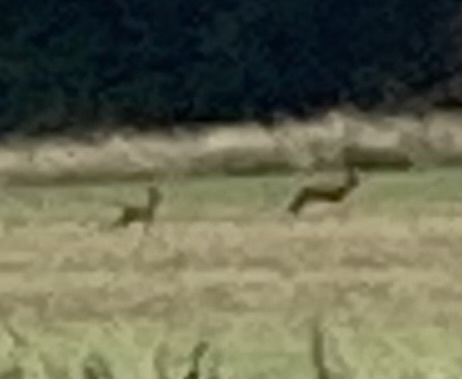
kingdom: Animalia
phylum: Chordata
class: Mammalia
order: Artiodactyla
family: Cervidae
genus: Capreolus
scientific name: Capreolus capreolus
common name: Western roe deer
